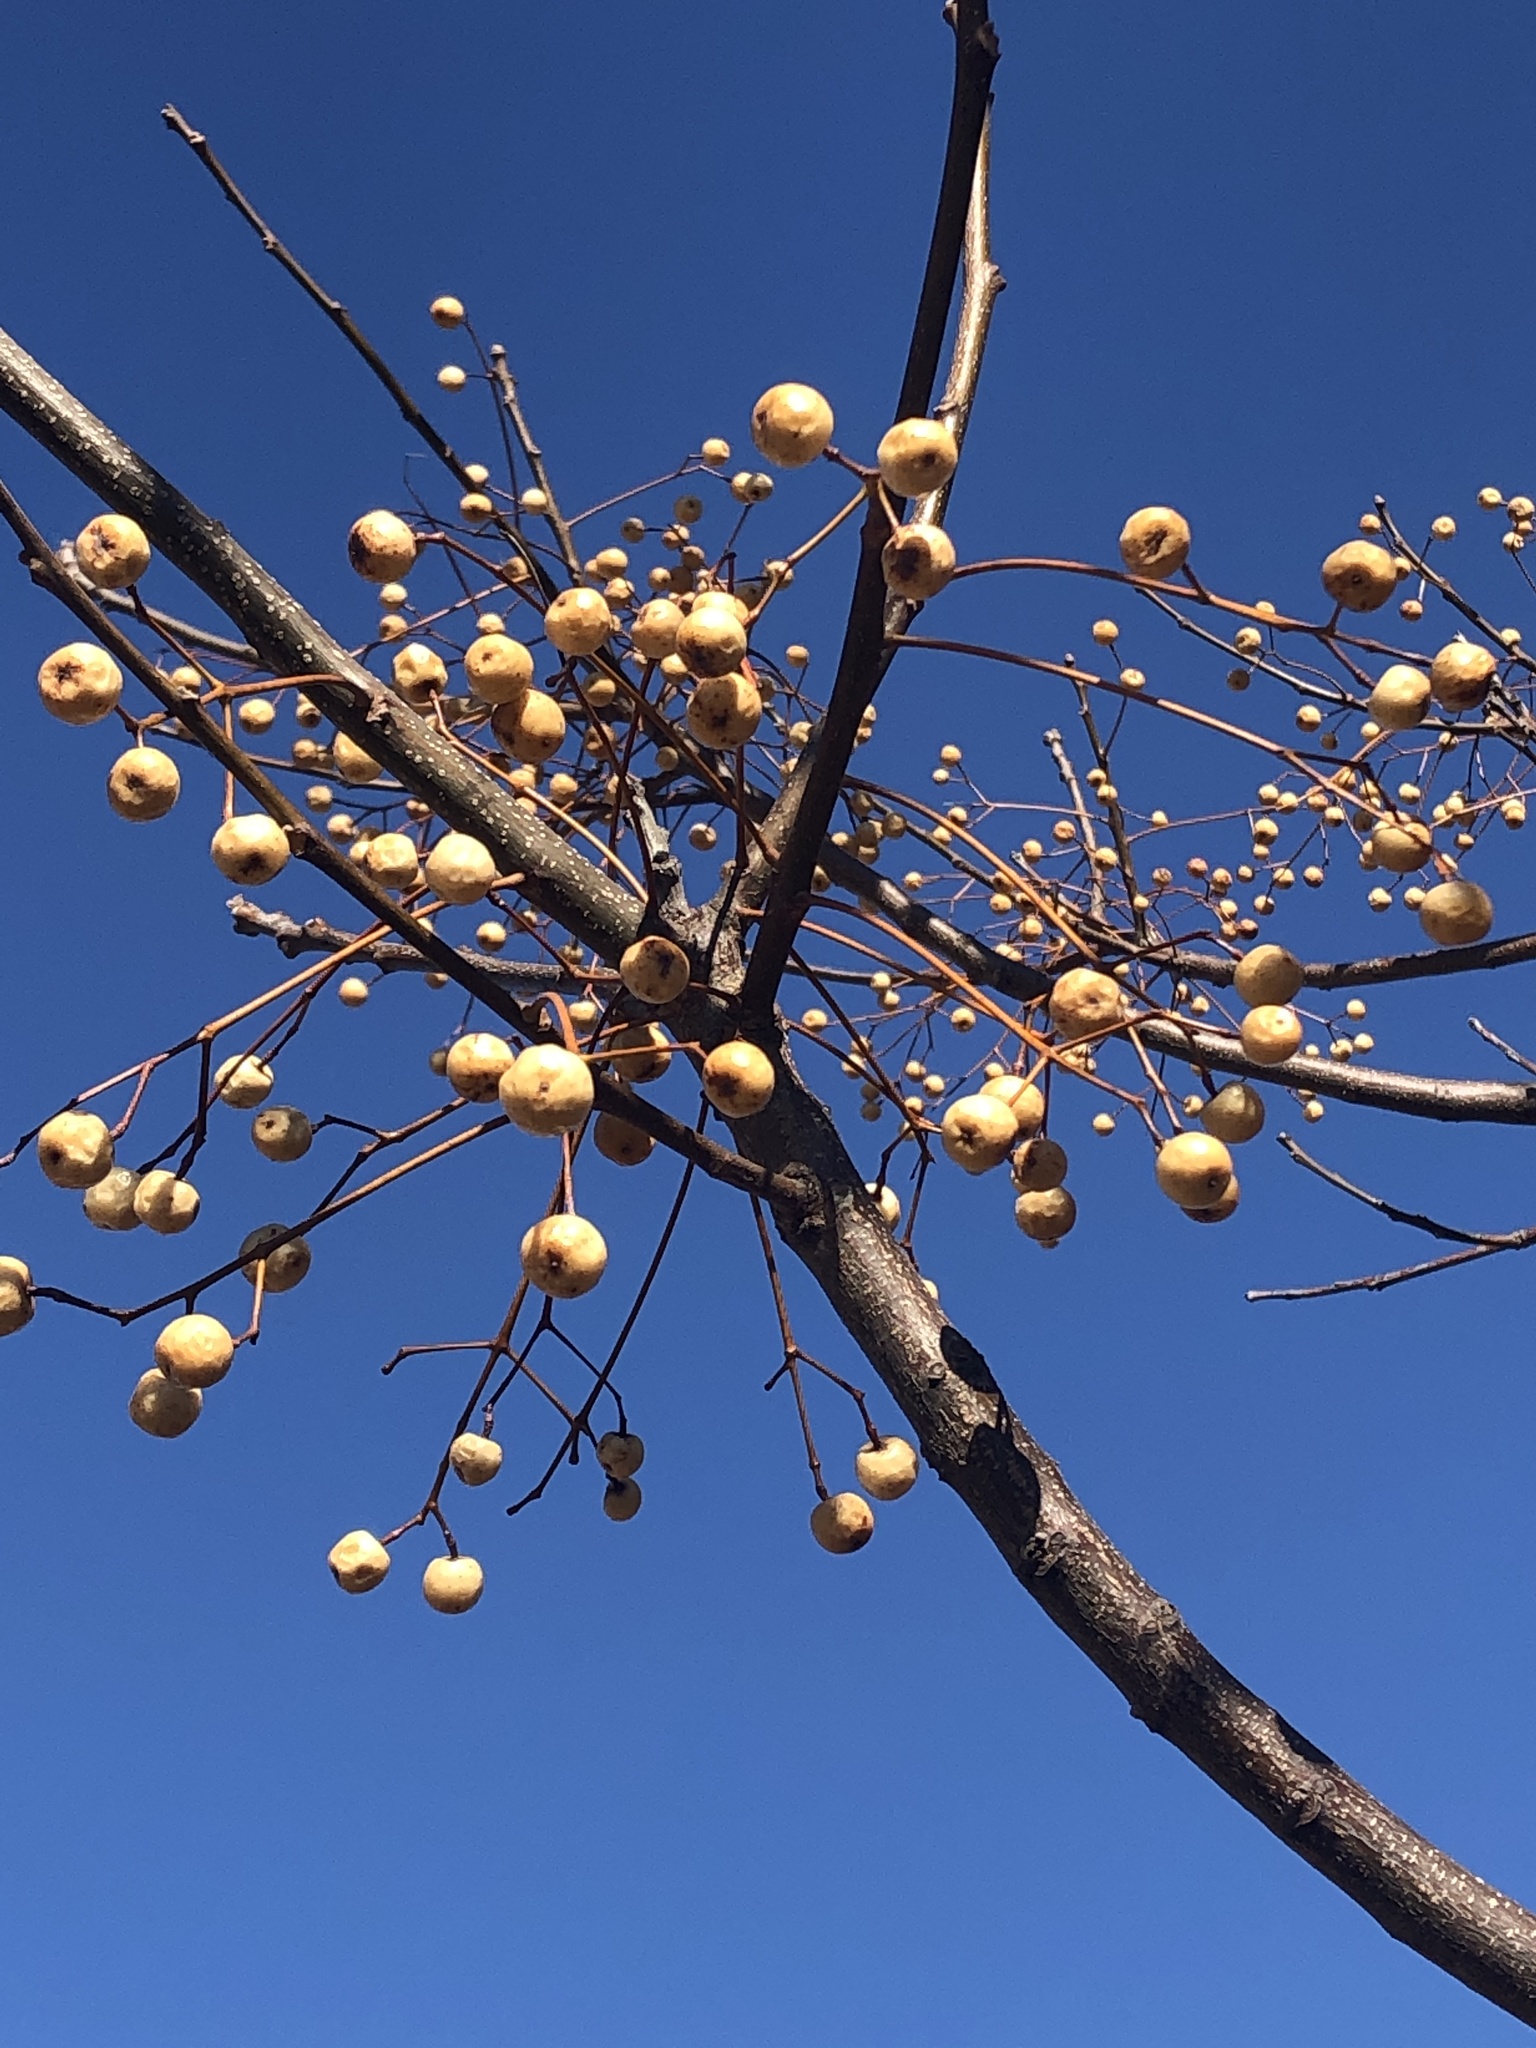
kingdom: Plantae
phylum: Tracheophyta
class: Magnoliopsida
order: Sapindales
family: Meliaceae
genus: Melia
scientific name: Melia azedarach
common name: Chinaberrytree
